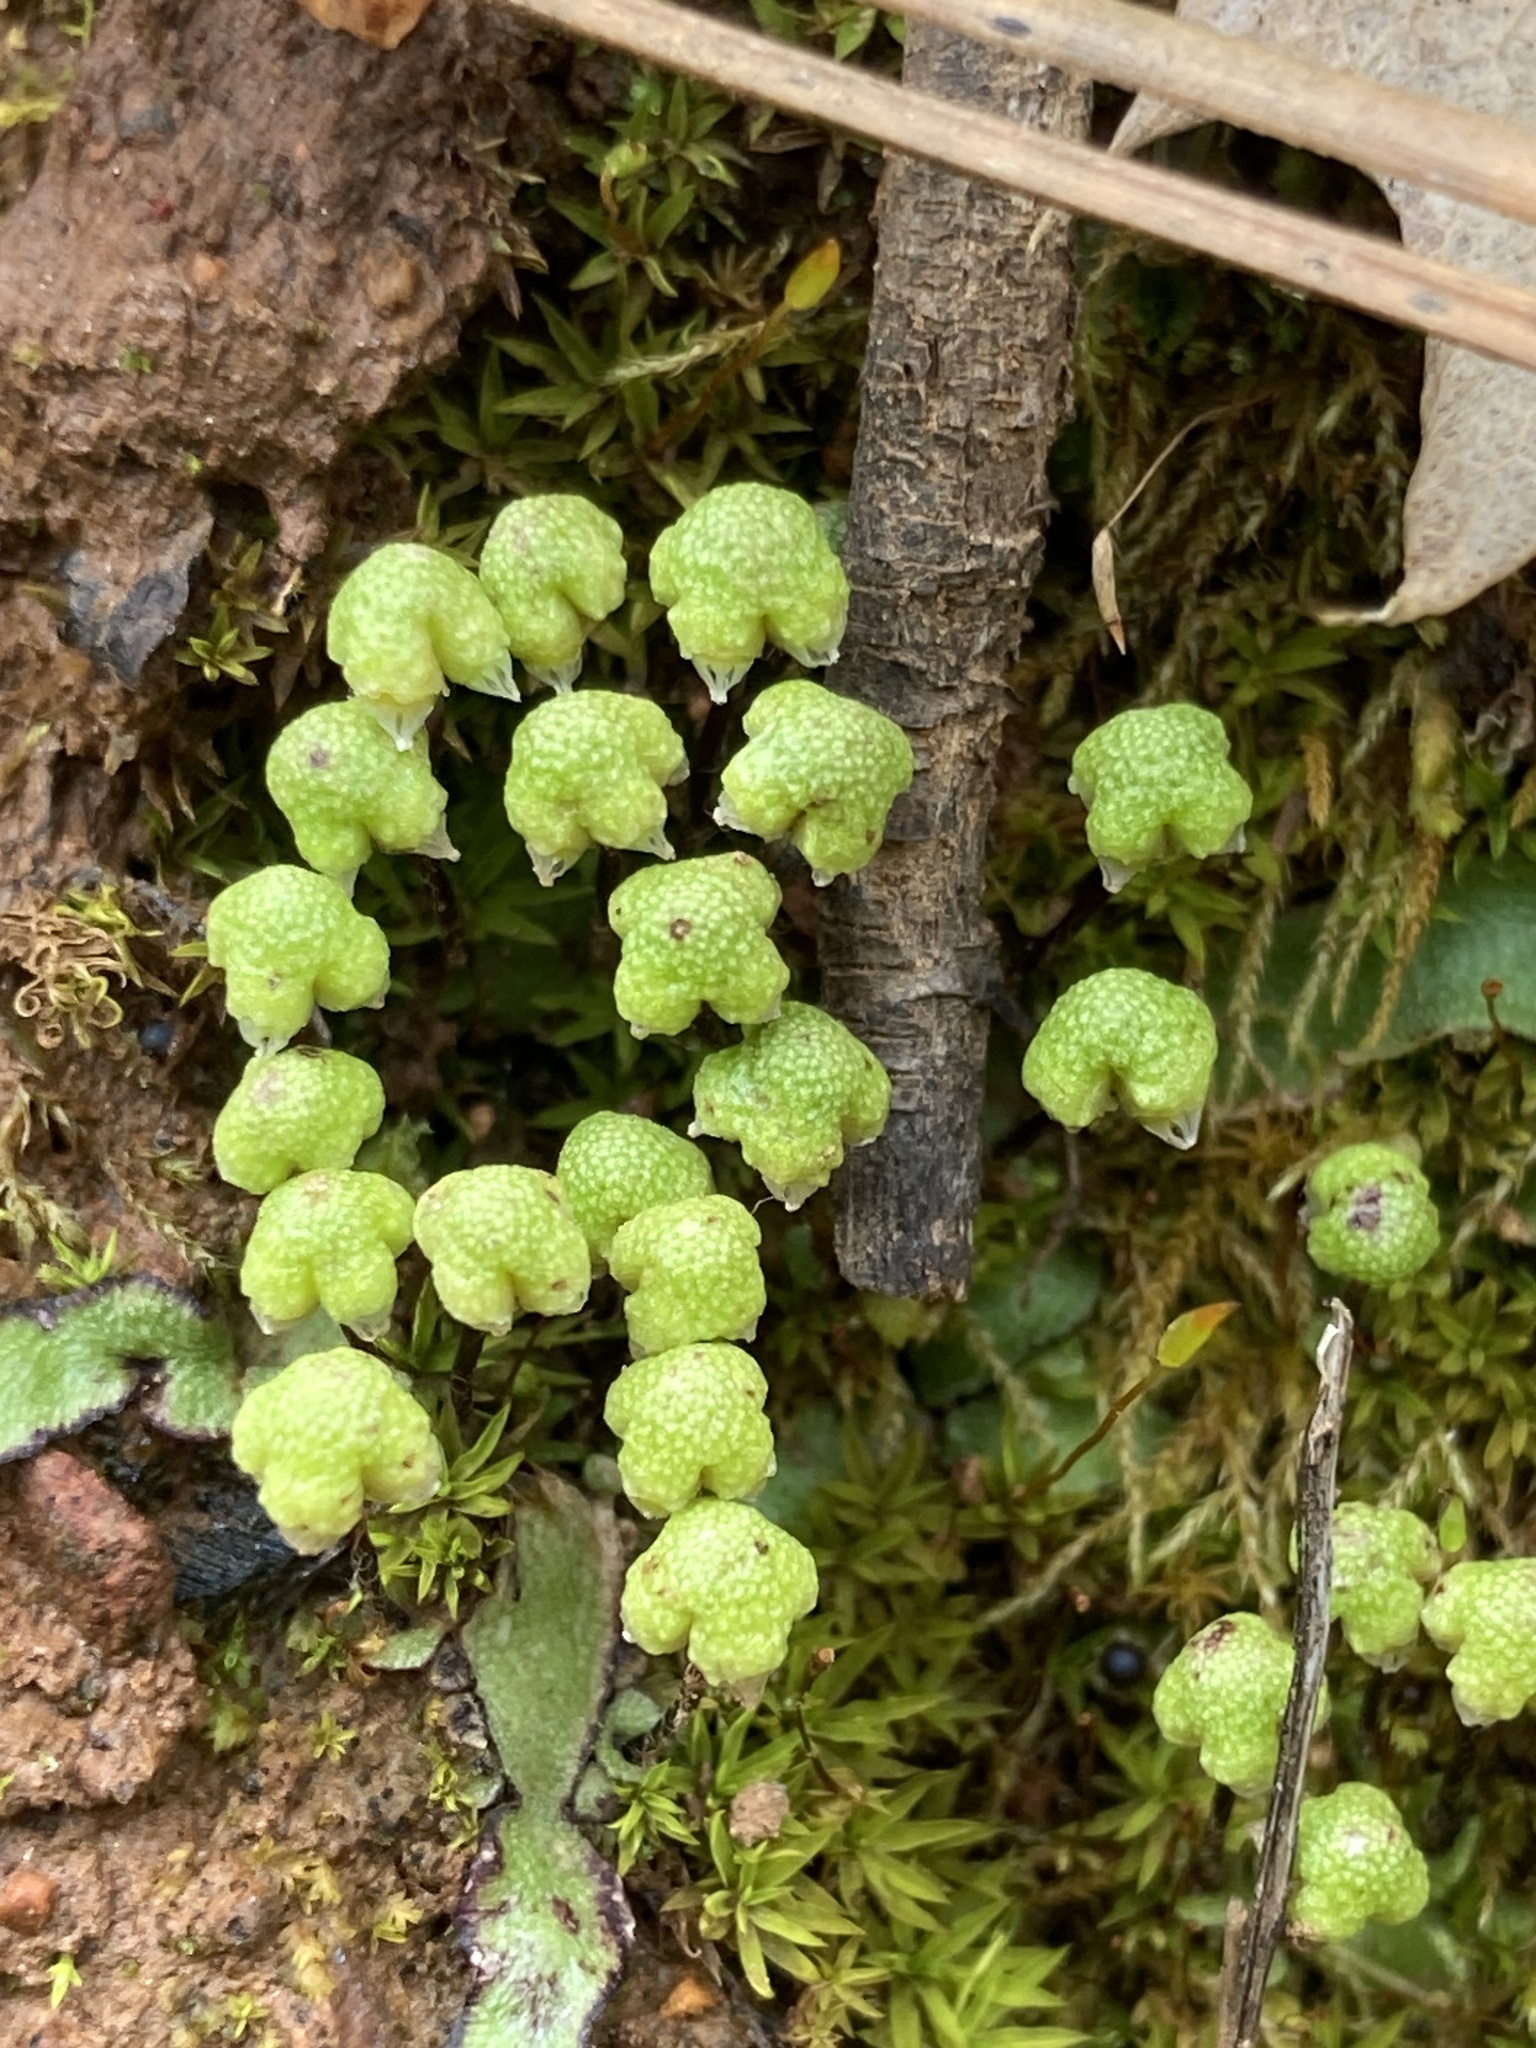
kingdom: Plantae
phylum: Marchantiophyta
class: Marchantiopsida
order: Marchantiales
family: Aytoniaceae
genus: Asterella
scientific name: Asterella californica
